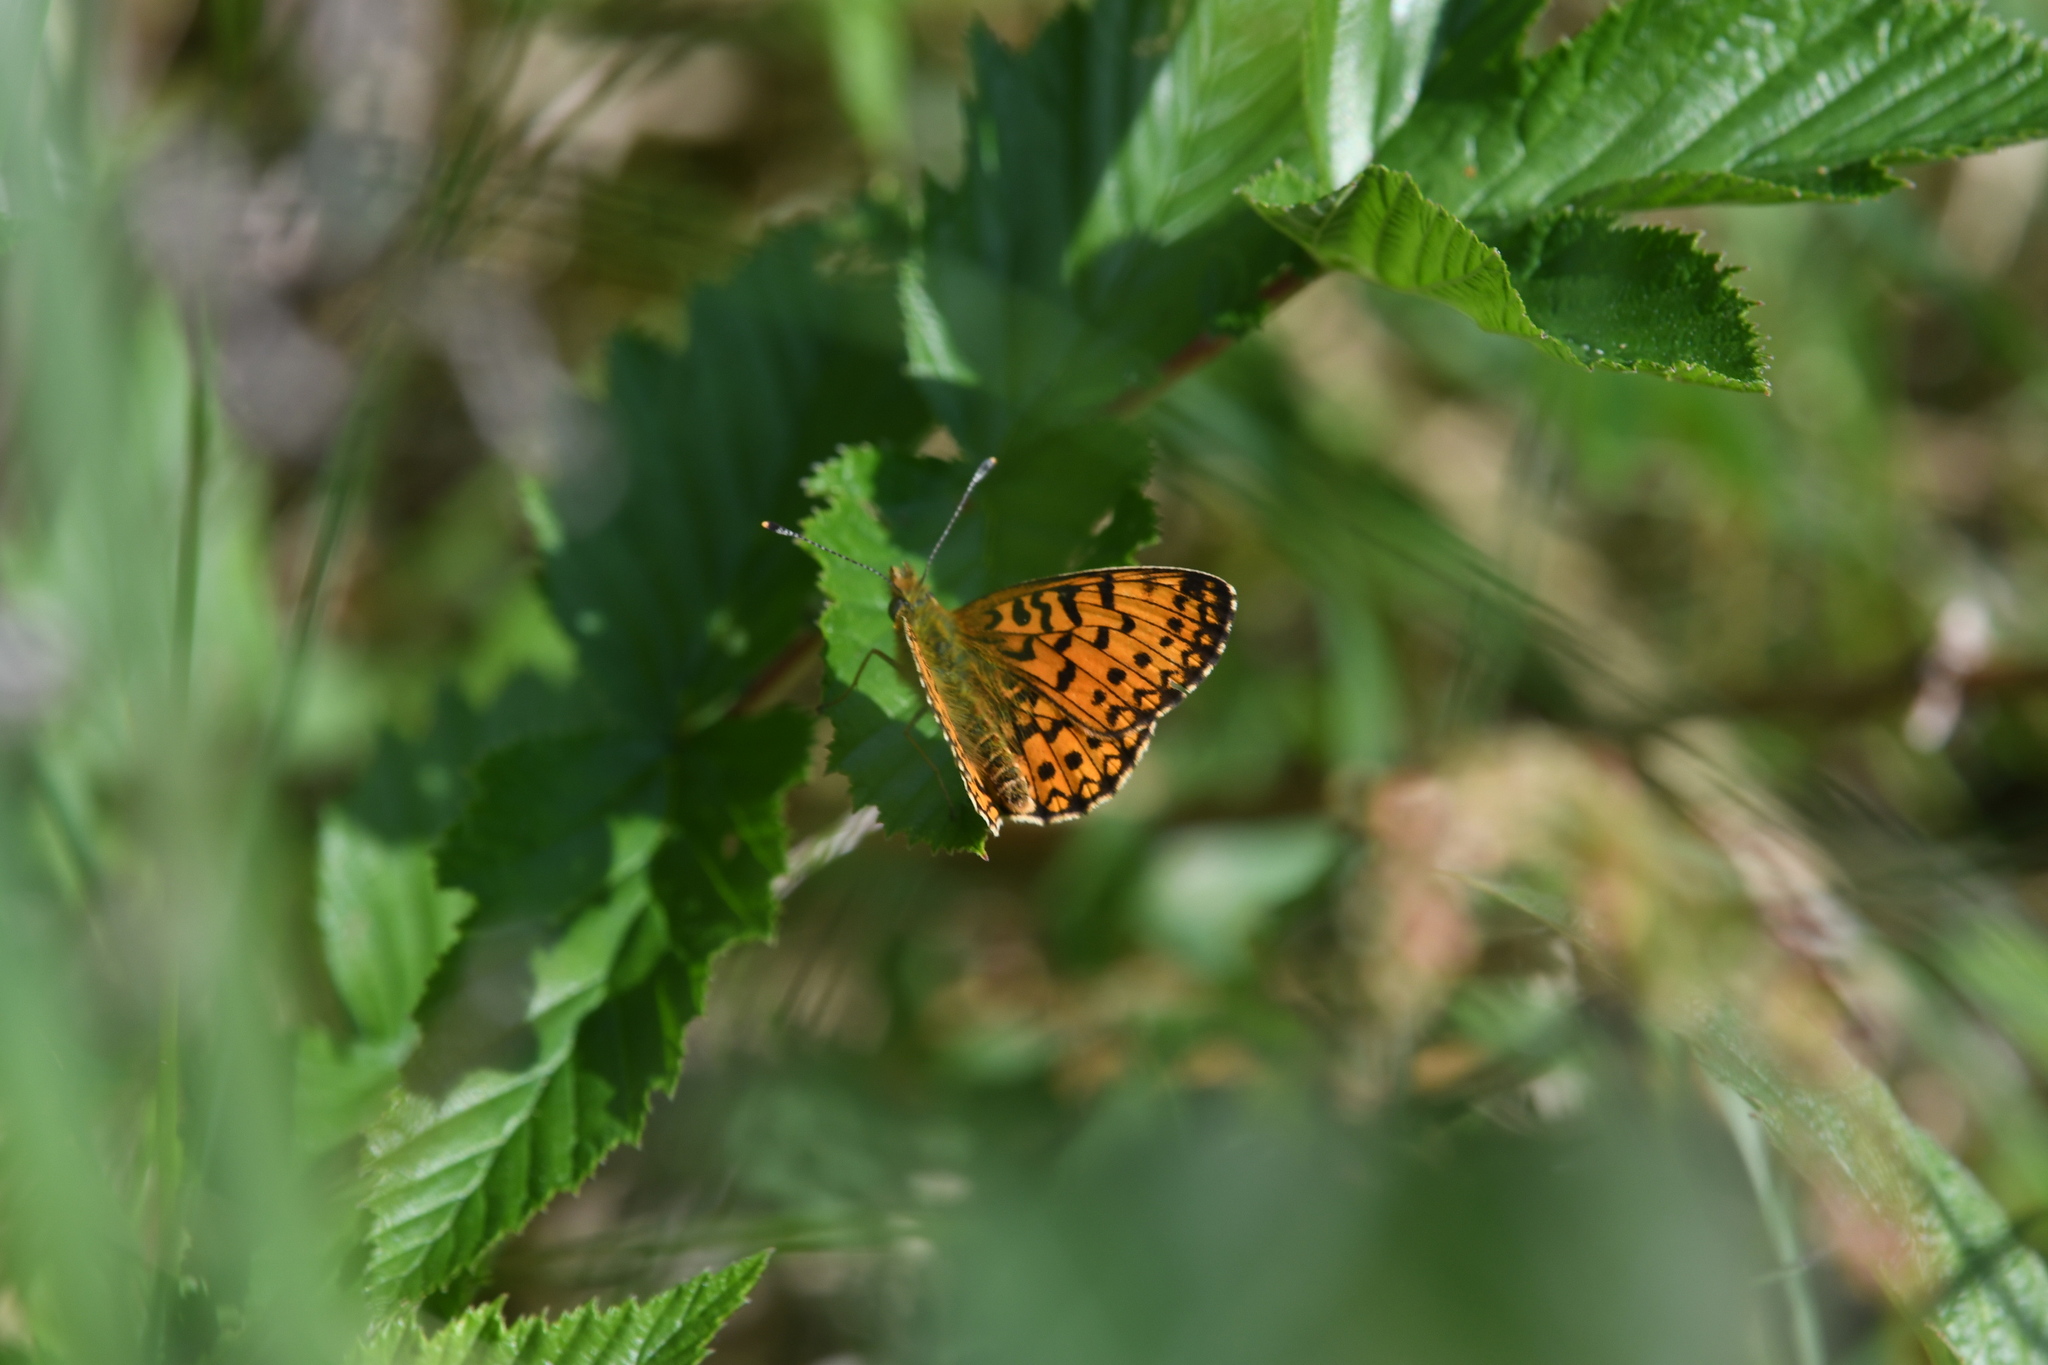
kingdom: Animalia
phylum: Arthropoda
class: Insecta
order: Lepidoptera
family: Nymphalidae
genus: Boloria
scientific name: Boloria selene
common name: Small pearl-bordered fritillary
